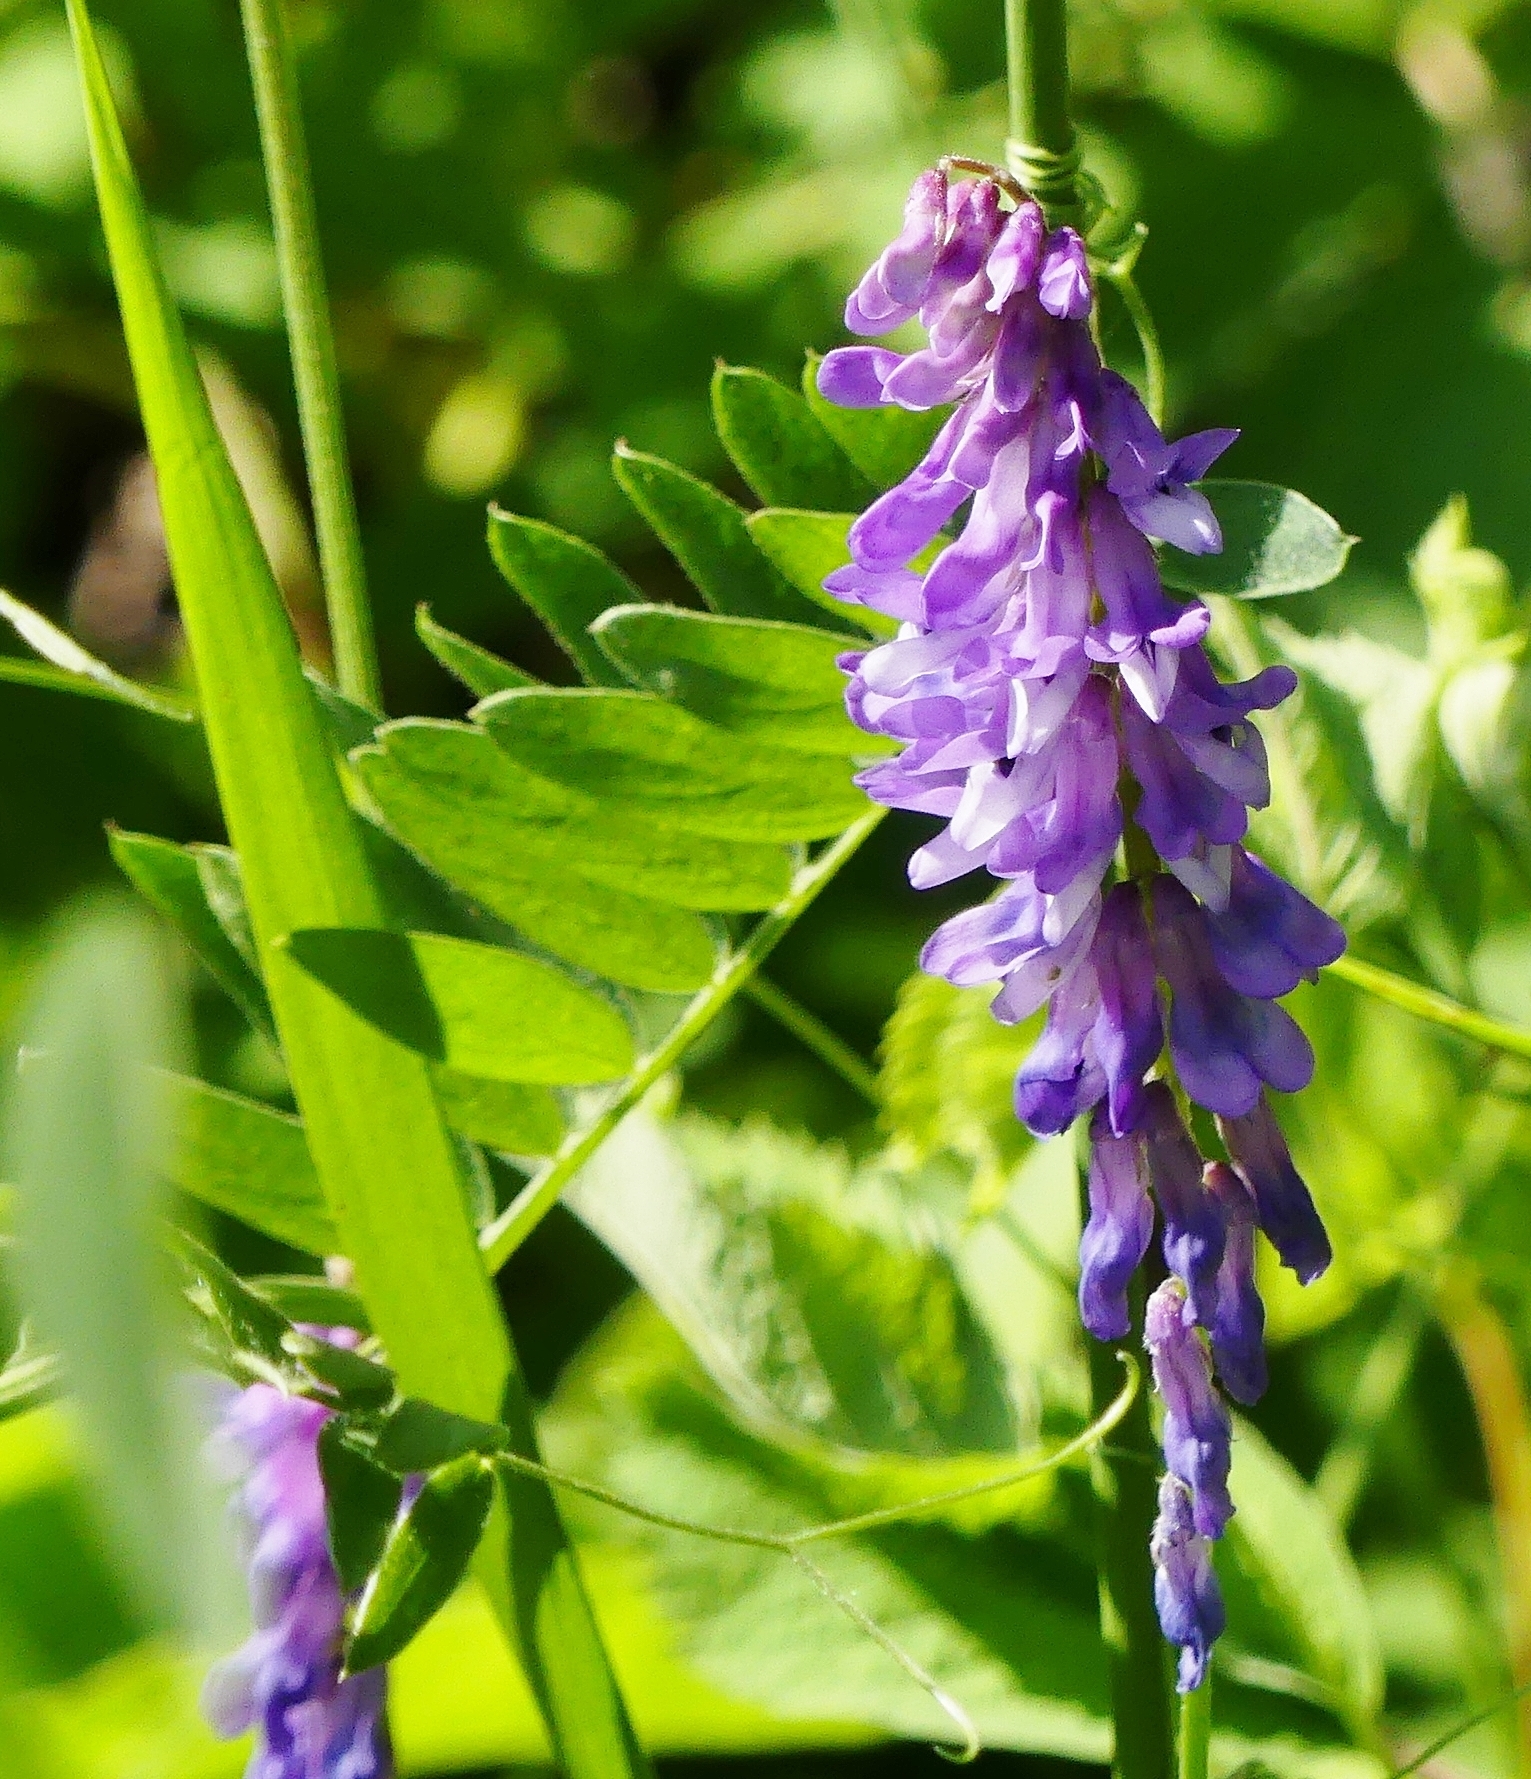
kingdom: Plantae
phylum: Tracheophyta
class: Magnoliopsida
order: Fabales
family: Fabaceae
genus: Vicia
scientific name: Vicia cracca
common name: Bird vetch
